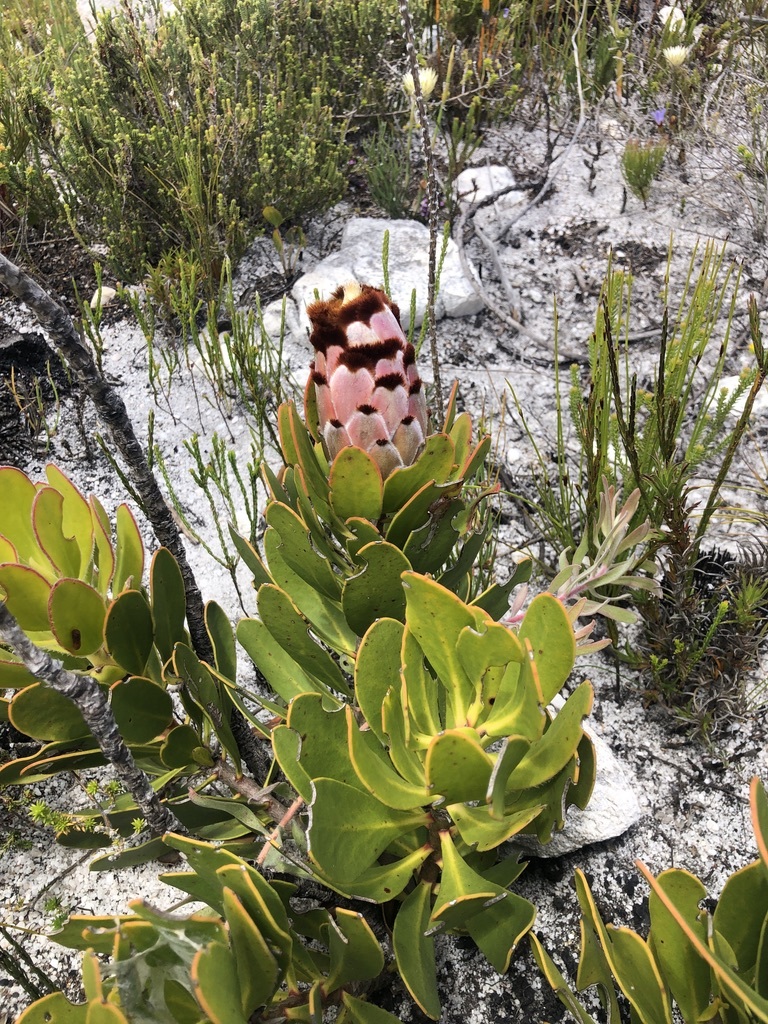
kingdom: Plantae
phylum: Tracheophyta
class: Magnoliopsida
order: Proteales
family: Proteaceae
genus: Protea
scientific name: Protea speciosa
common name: Brown-beard sugarbush
